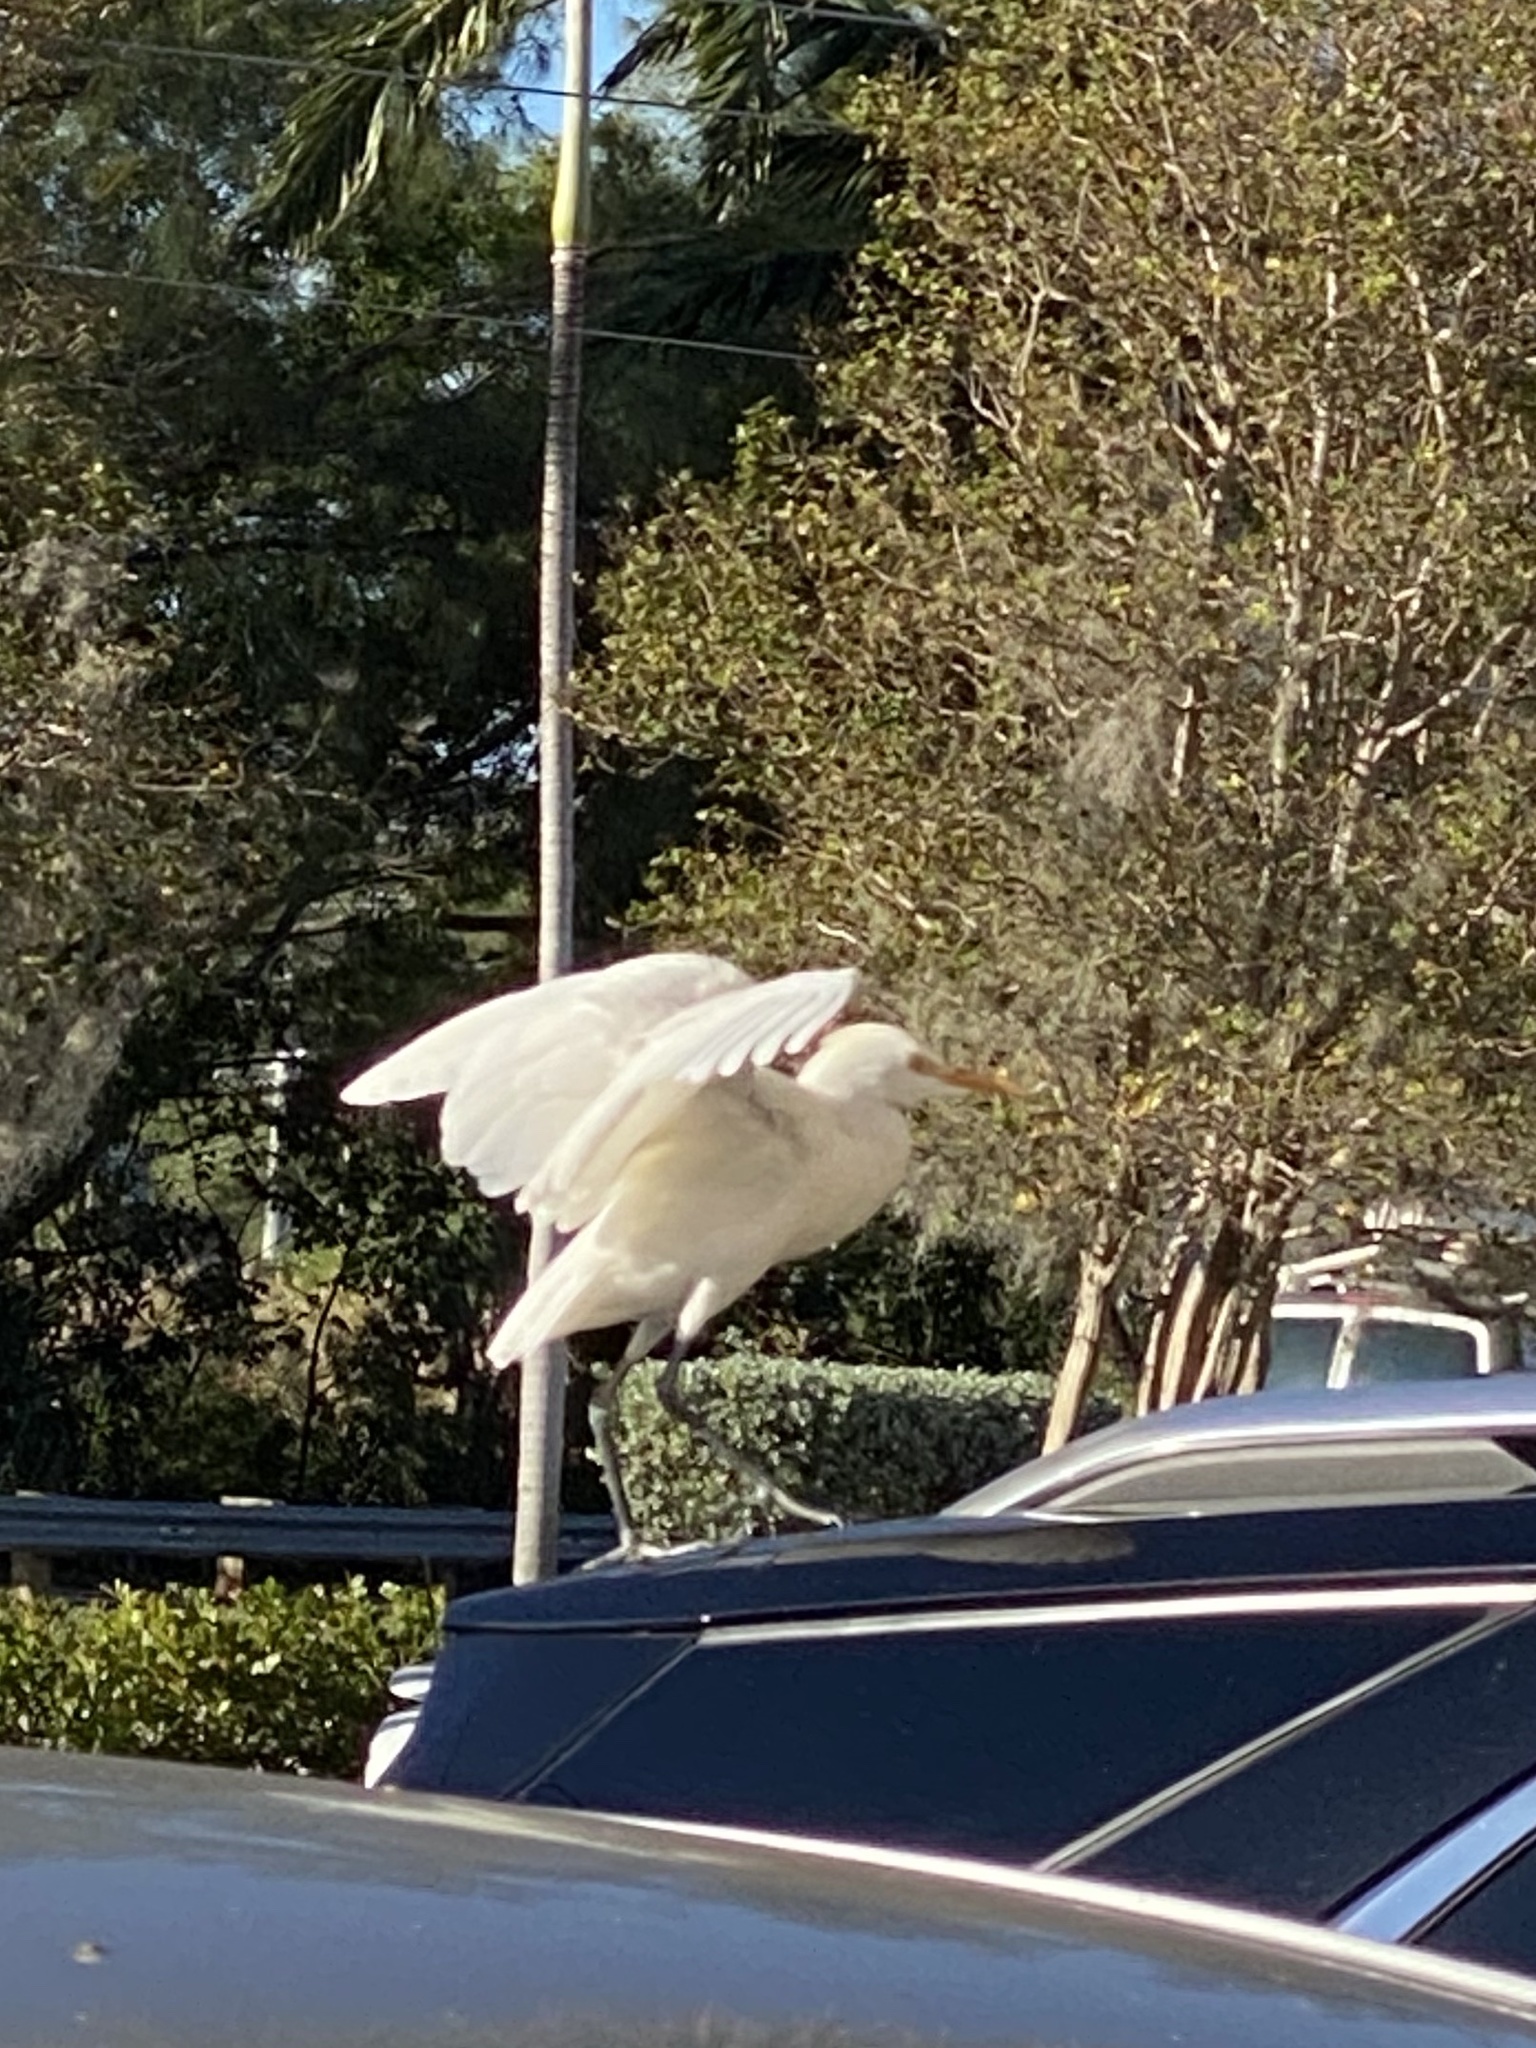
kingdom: Animalia
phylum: Chordata
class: Aves
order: Pelecaniformes
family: Ardeidae
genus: Bubulcus
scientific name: Bubulcus ibis
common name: Cattle egret
